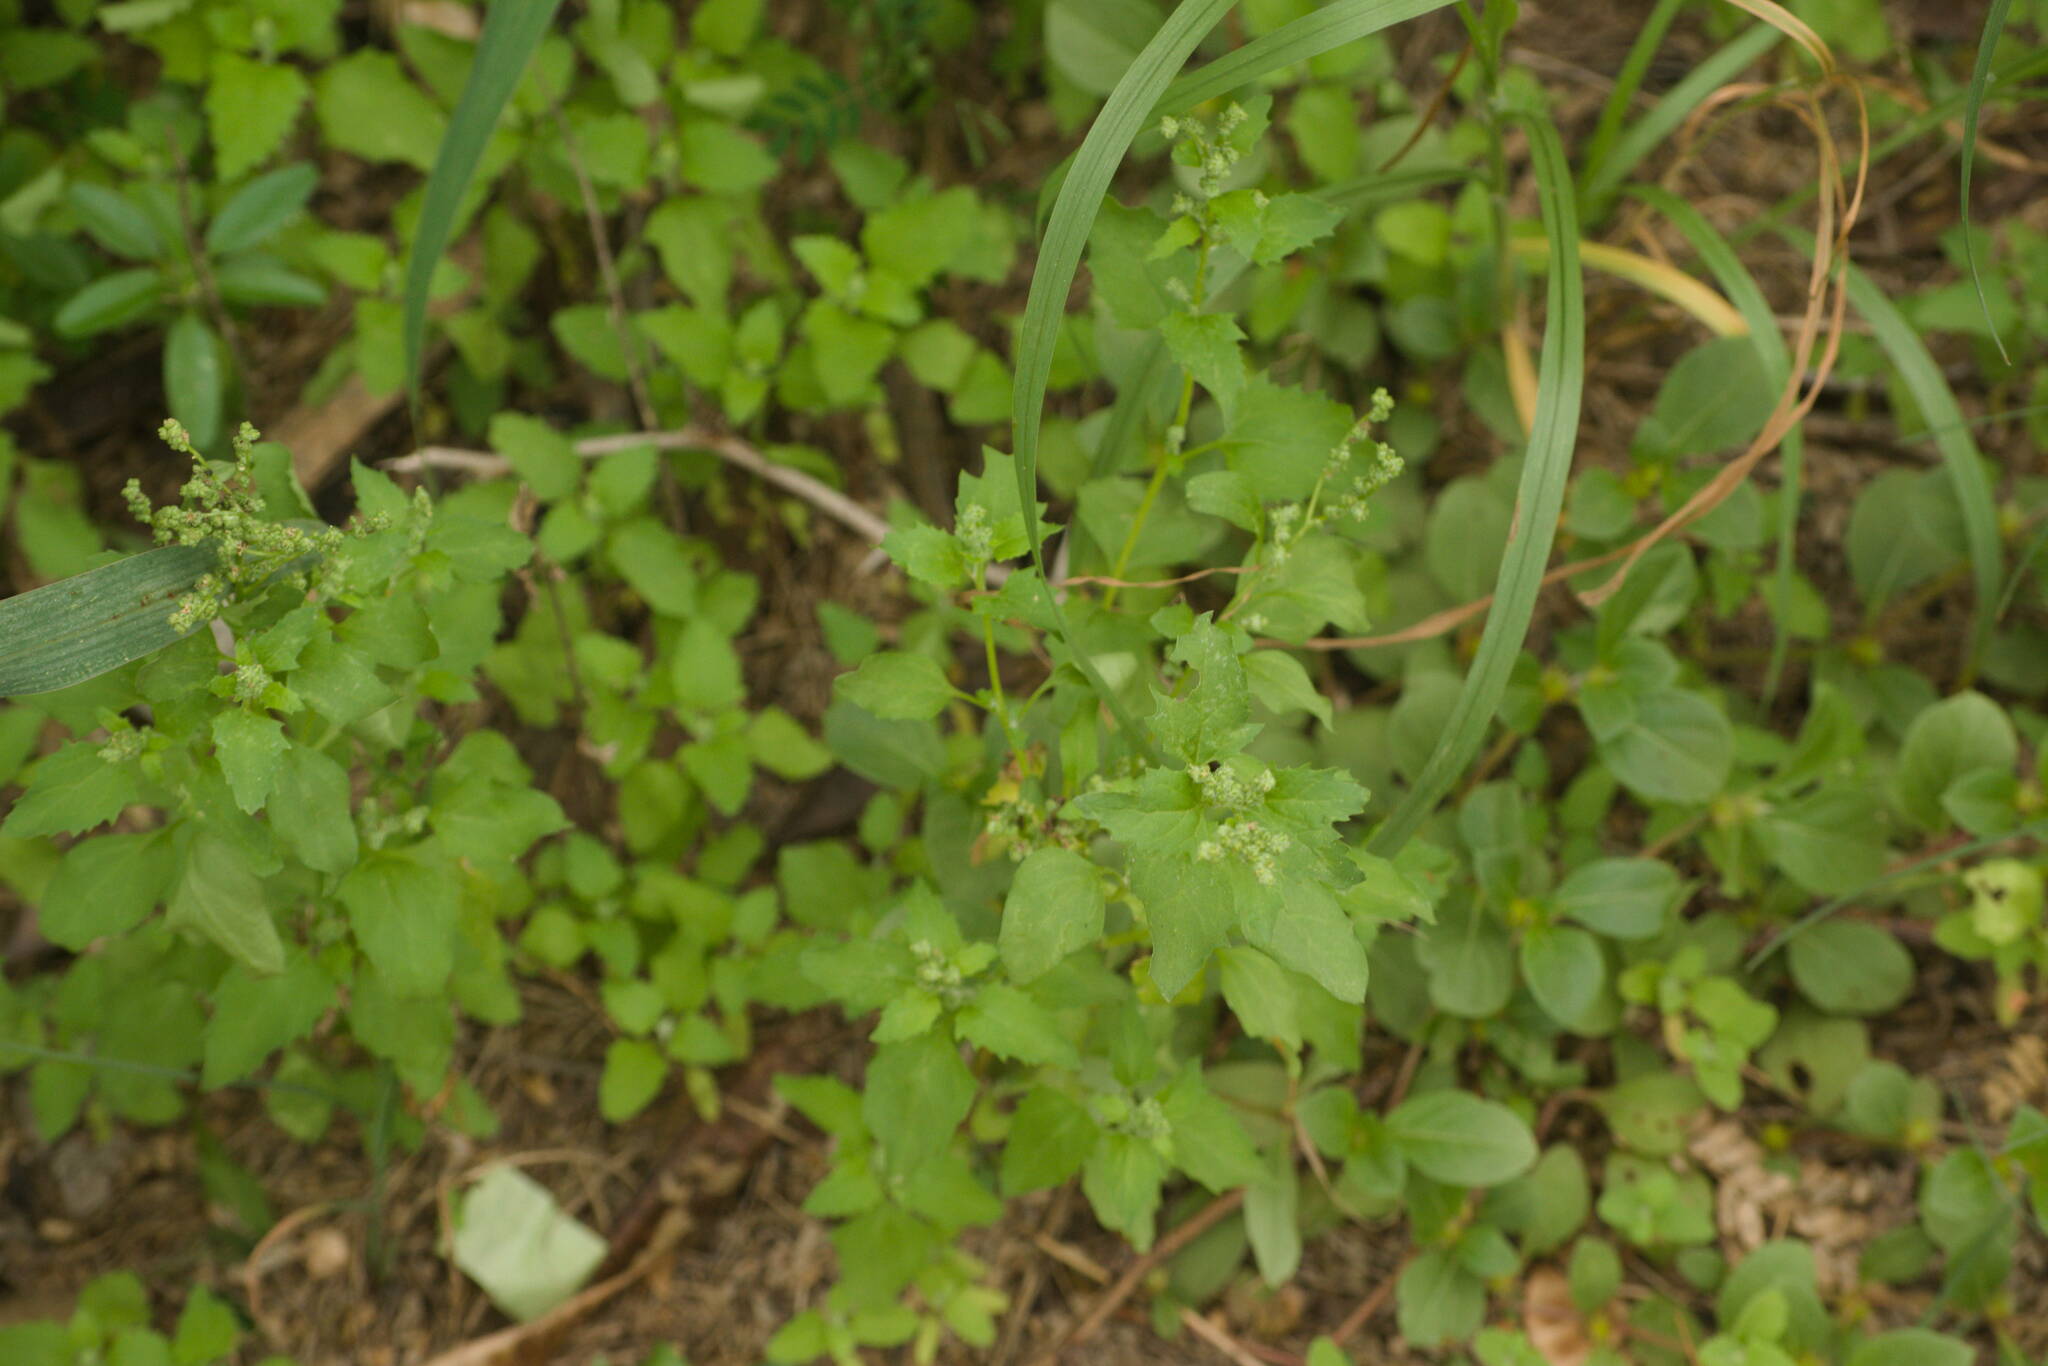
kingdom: Plantae
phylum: Tracheophyta
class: Magnoliopsida
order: Caryophyllales
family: Amaranthaceae
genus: Chenopodiastrum
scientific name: Chenopodiastrum murale
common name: Sowbane
